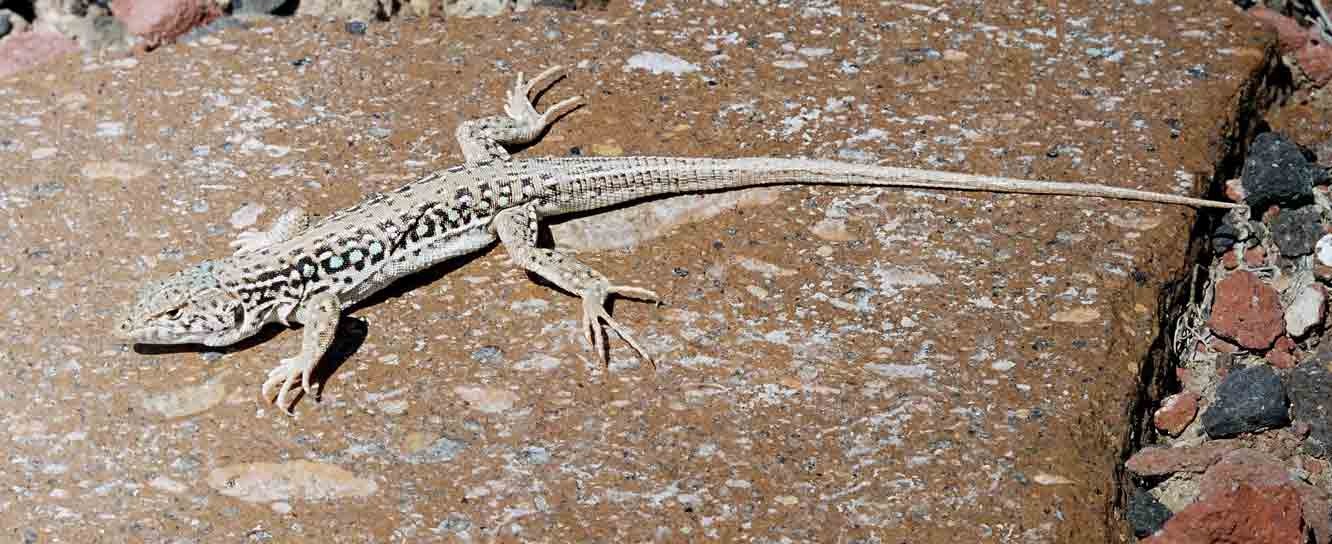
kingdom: Animalia
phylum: Chordata
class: Squamata
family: Lacertidae
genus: Eremias
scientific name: Eremias strauchi
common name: Strauch's racerunner
